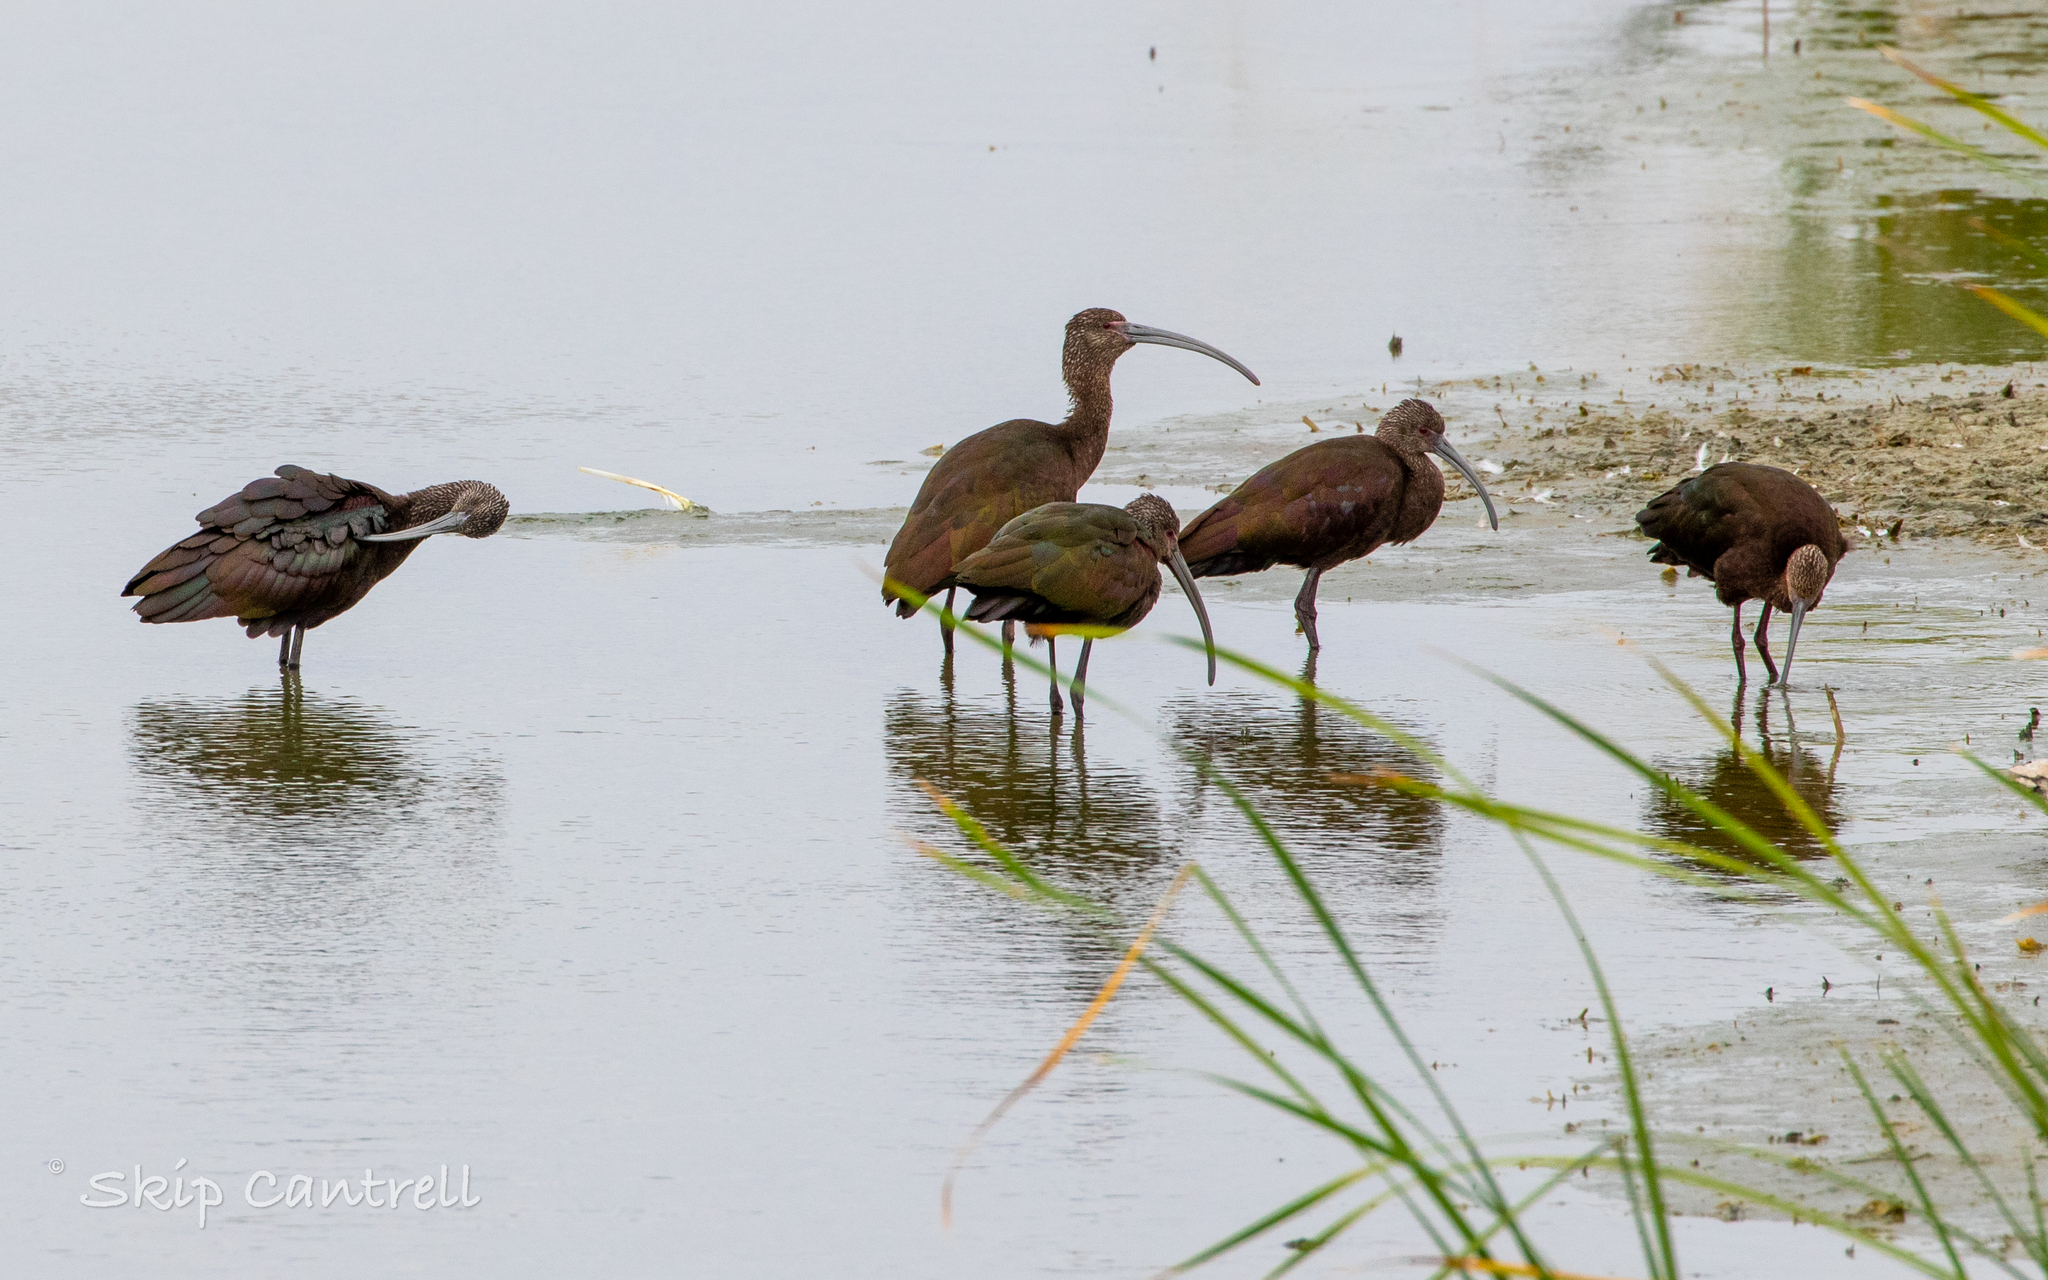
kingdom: Animalia
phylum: Chordata
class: Aves
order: Pelecaniformes
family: Threskiornithidae
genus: Plegadis
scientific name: Plegadis chihi
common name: White-faced ibis
